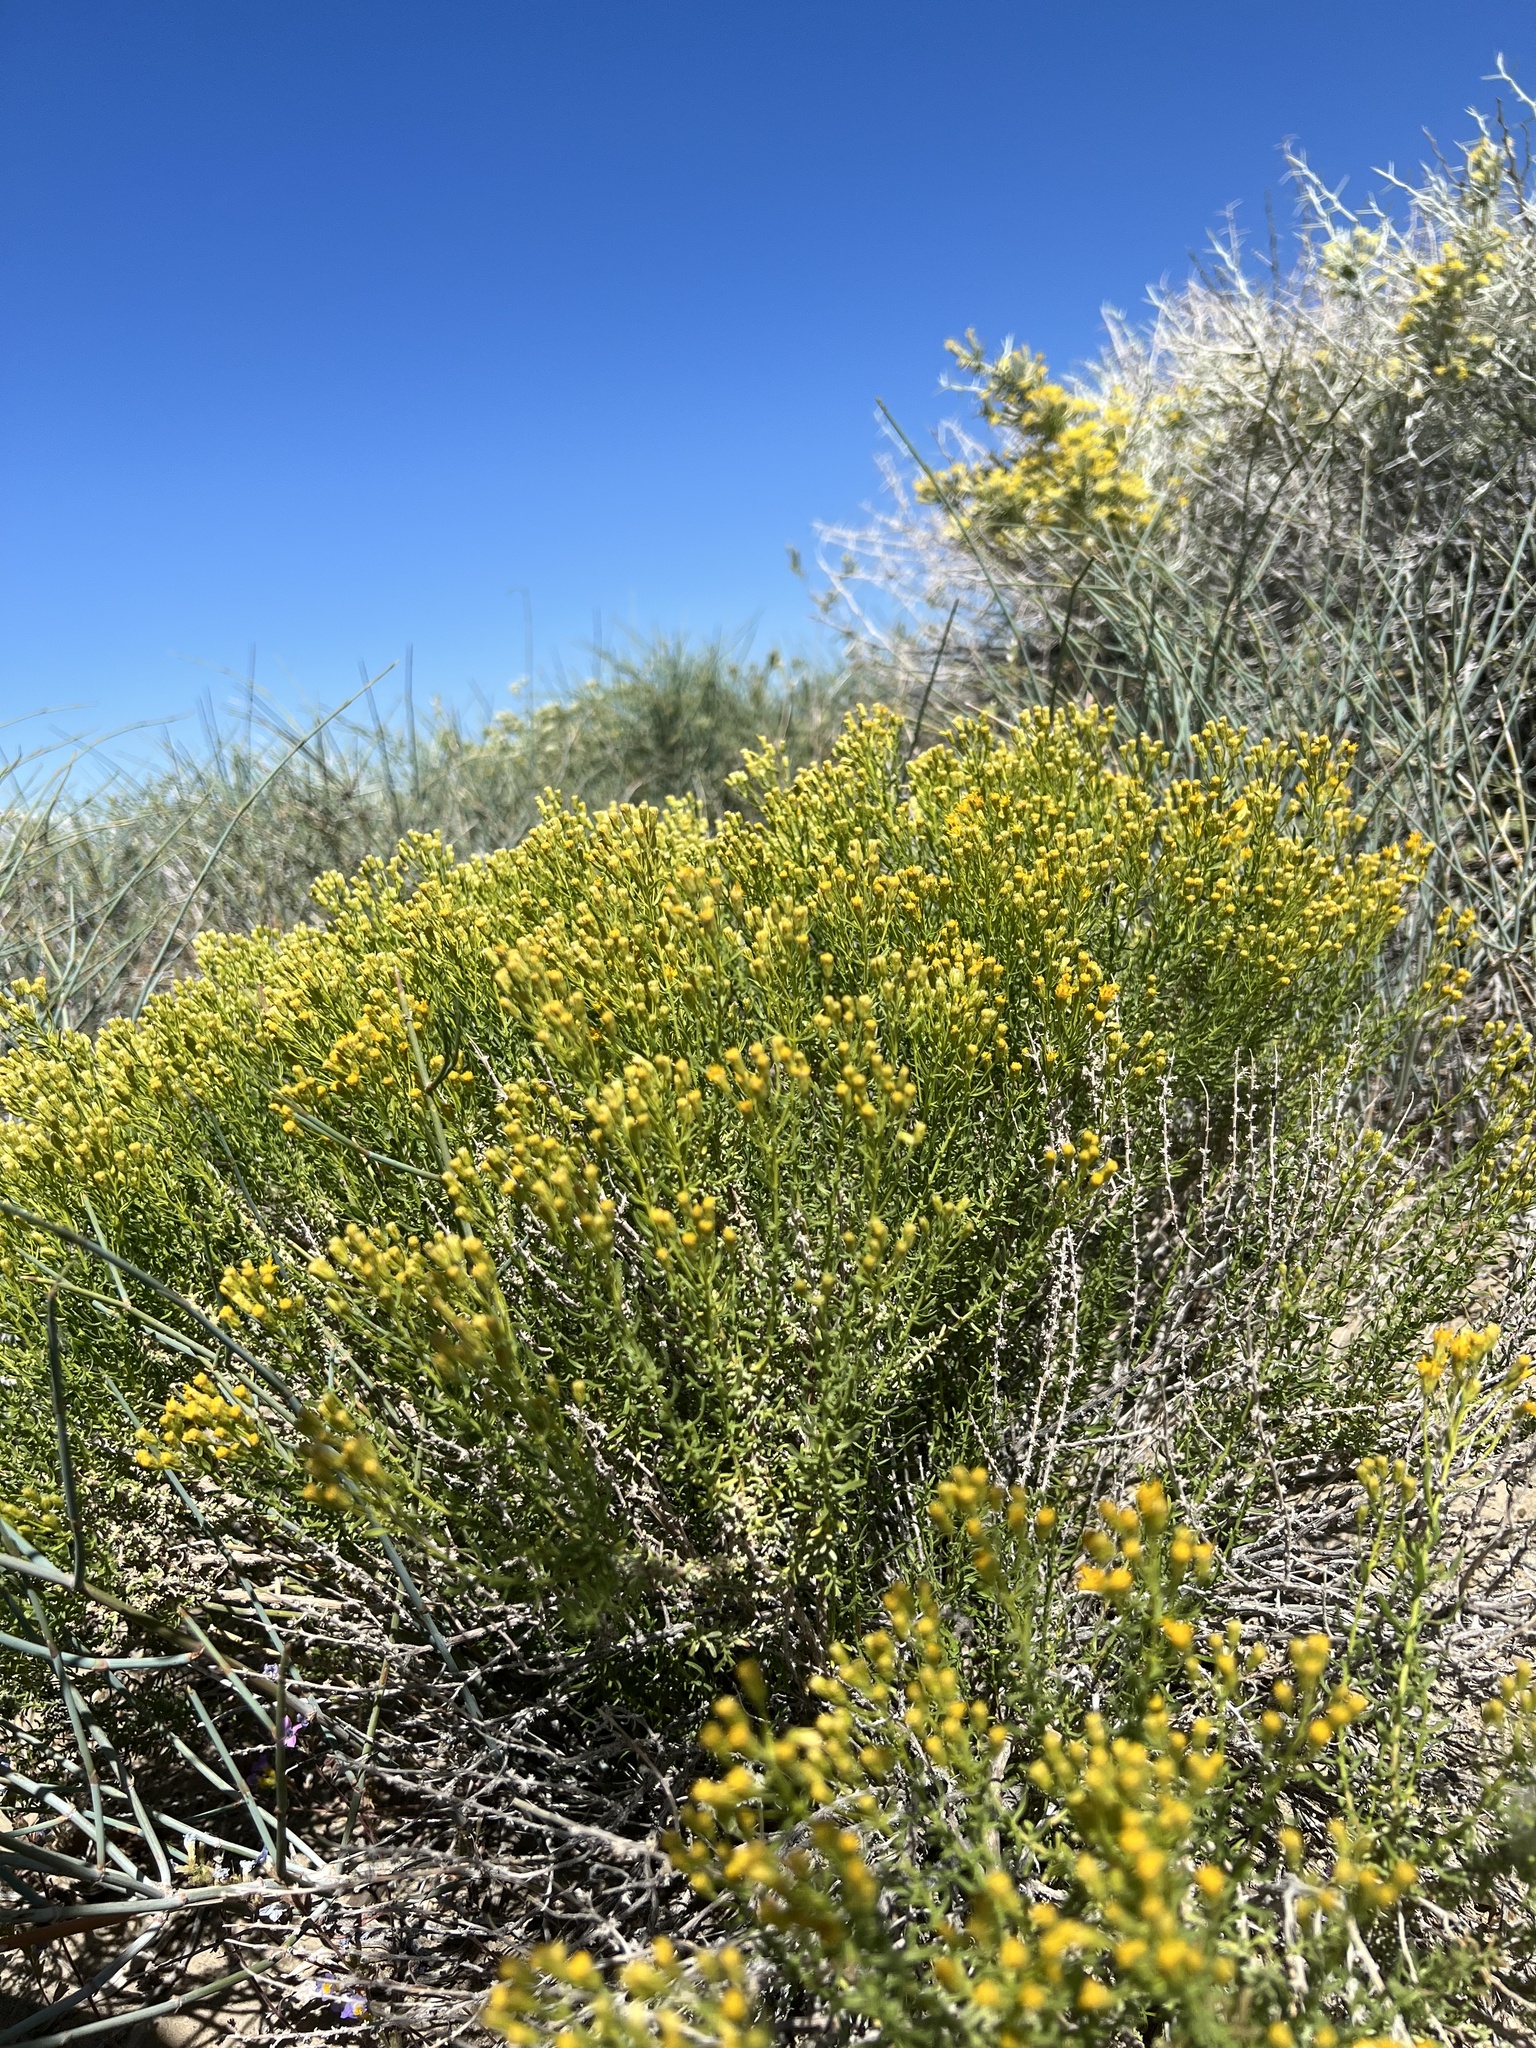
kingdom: Plantae
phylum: Tracheophyta
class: Magnoliopsida
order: Asterales
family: Asteraceae
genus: Ericameria
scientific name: Ericameria cooperi
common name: Cooper's goldenbush
